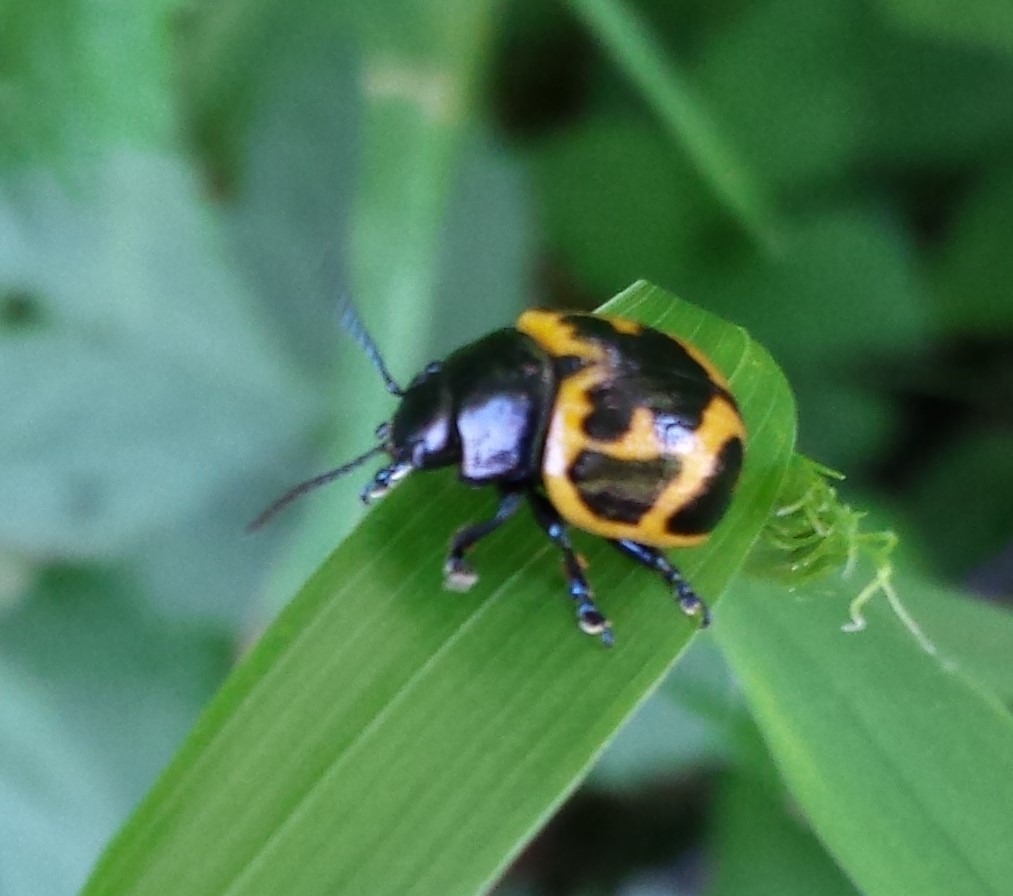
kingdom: Animalia
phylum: Arthropoda
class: Insecta
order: Coleoptera
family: Chrysomelidae
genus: Labidomera
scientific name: Labidomera clivicollis
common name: Swamp milkweed leaf beetle
